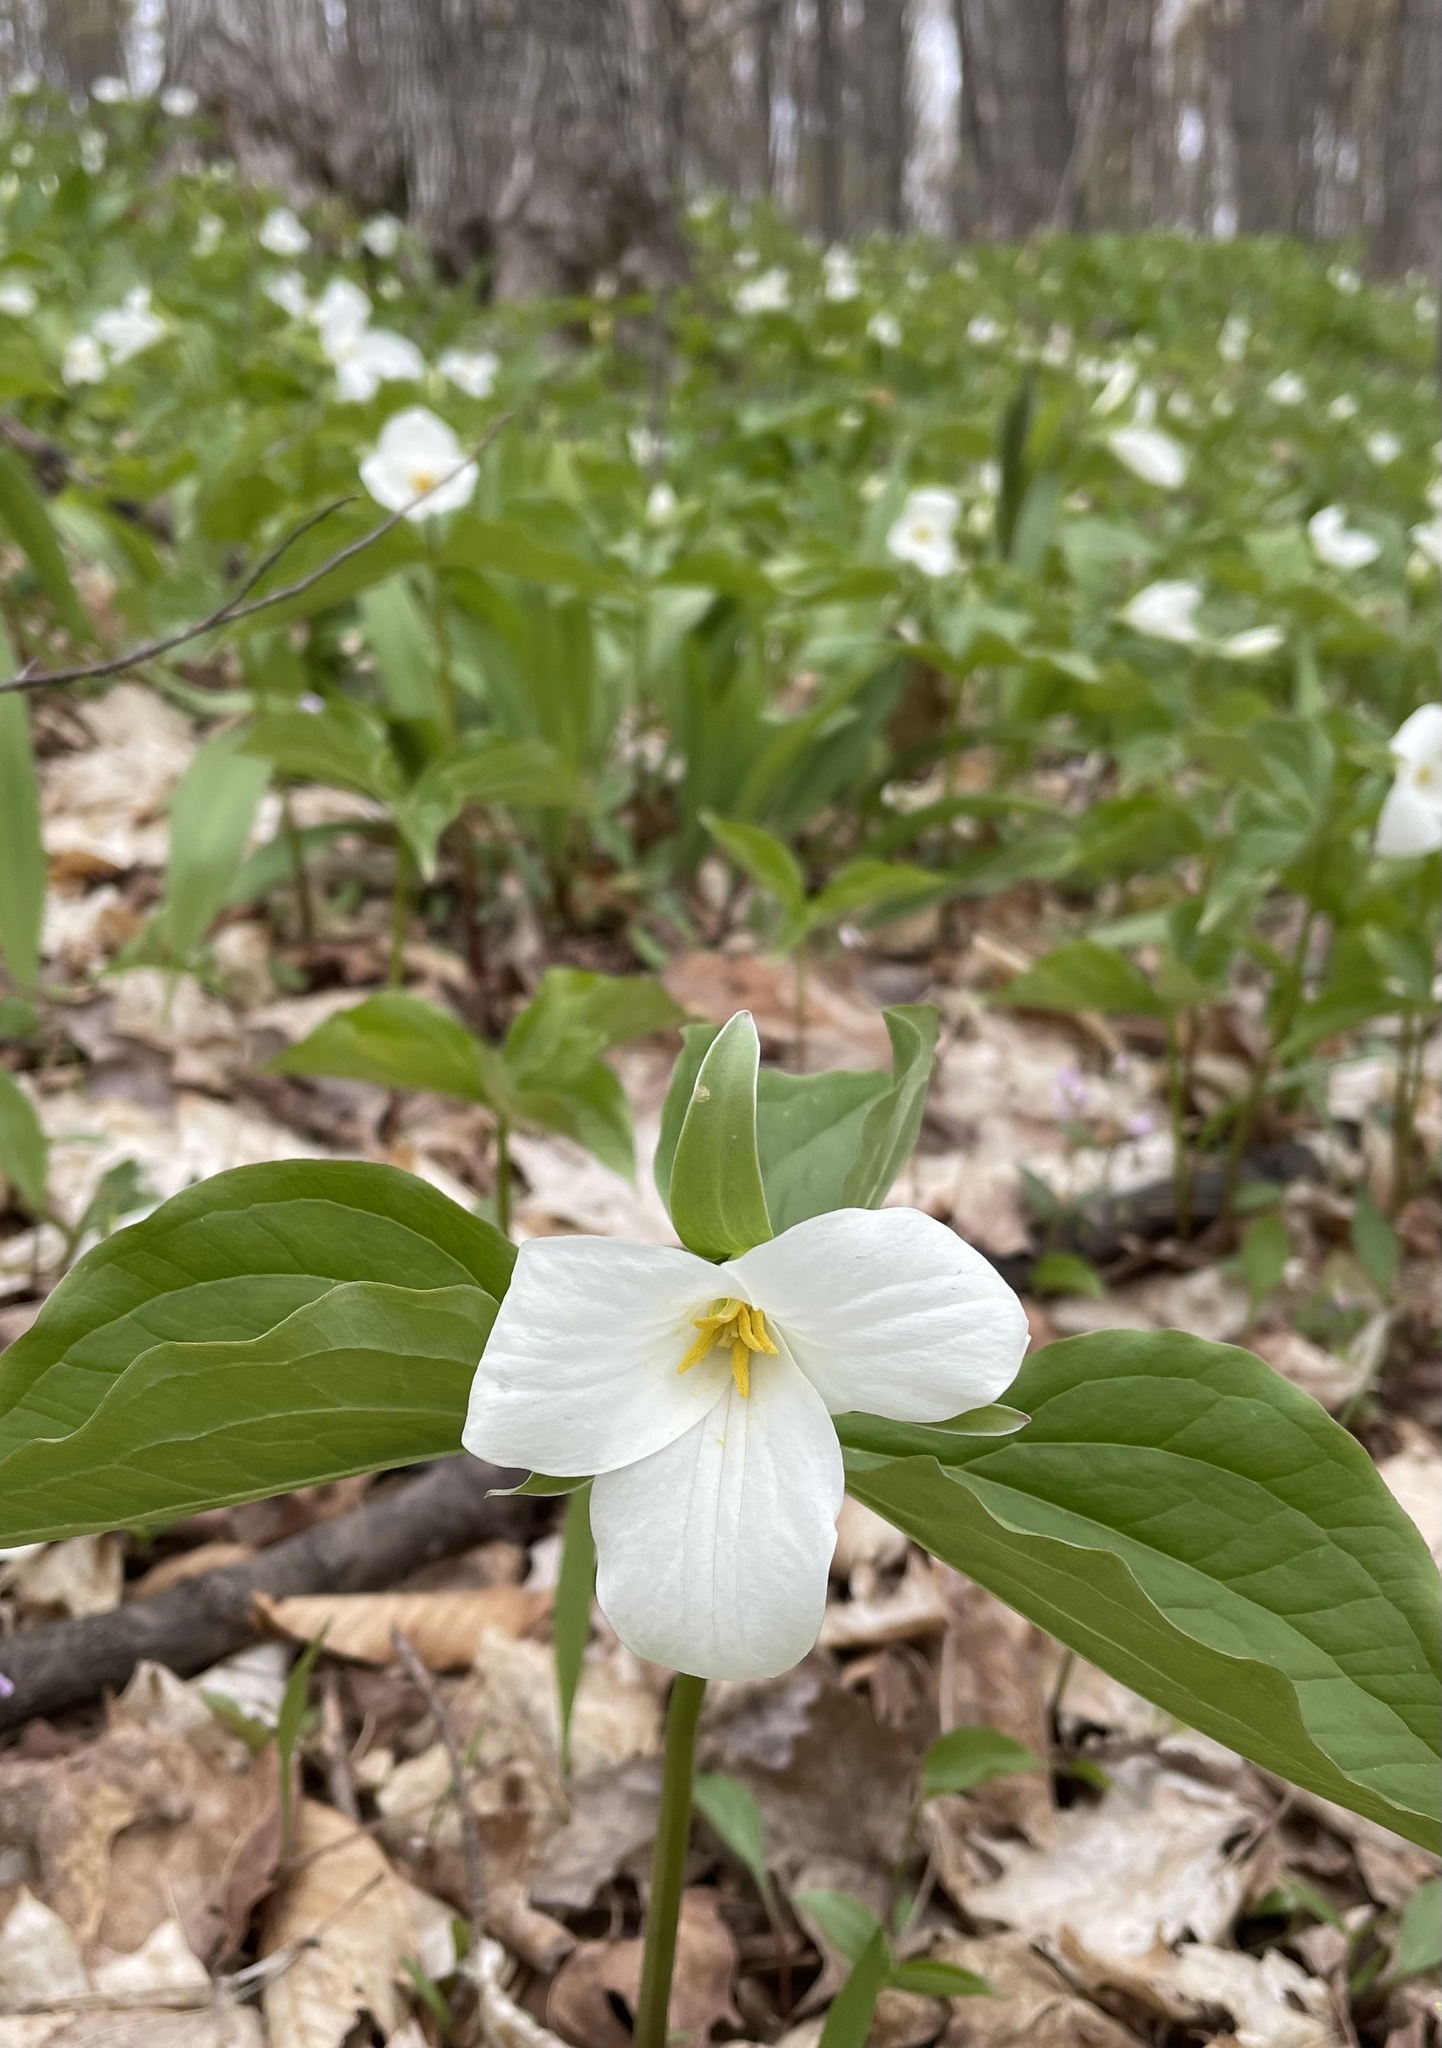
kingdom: Plantae
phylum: Tracheophyta
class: Liliopsida
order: Liliales
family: Melanthiaceae
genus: Trillium
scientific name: Trillium grandiflorum
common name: Great white trillium
